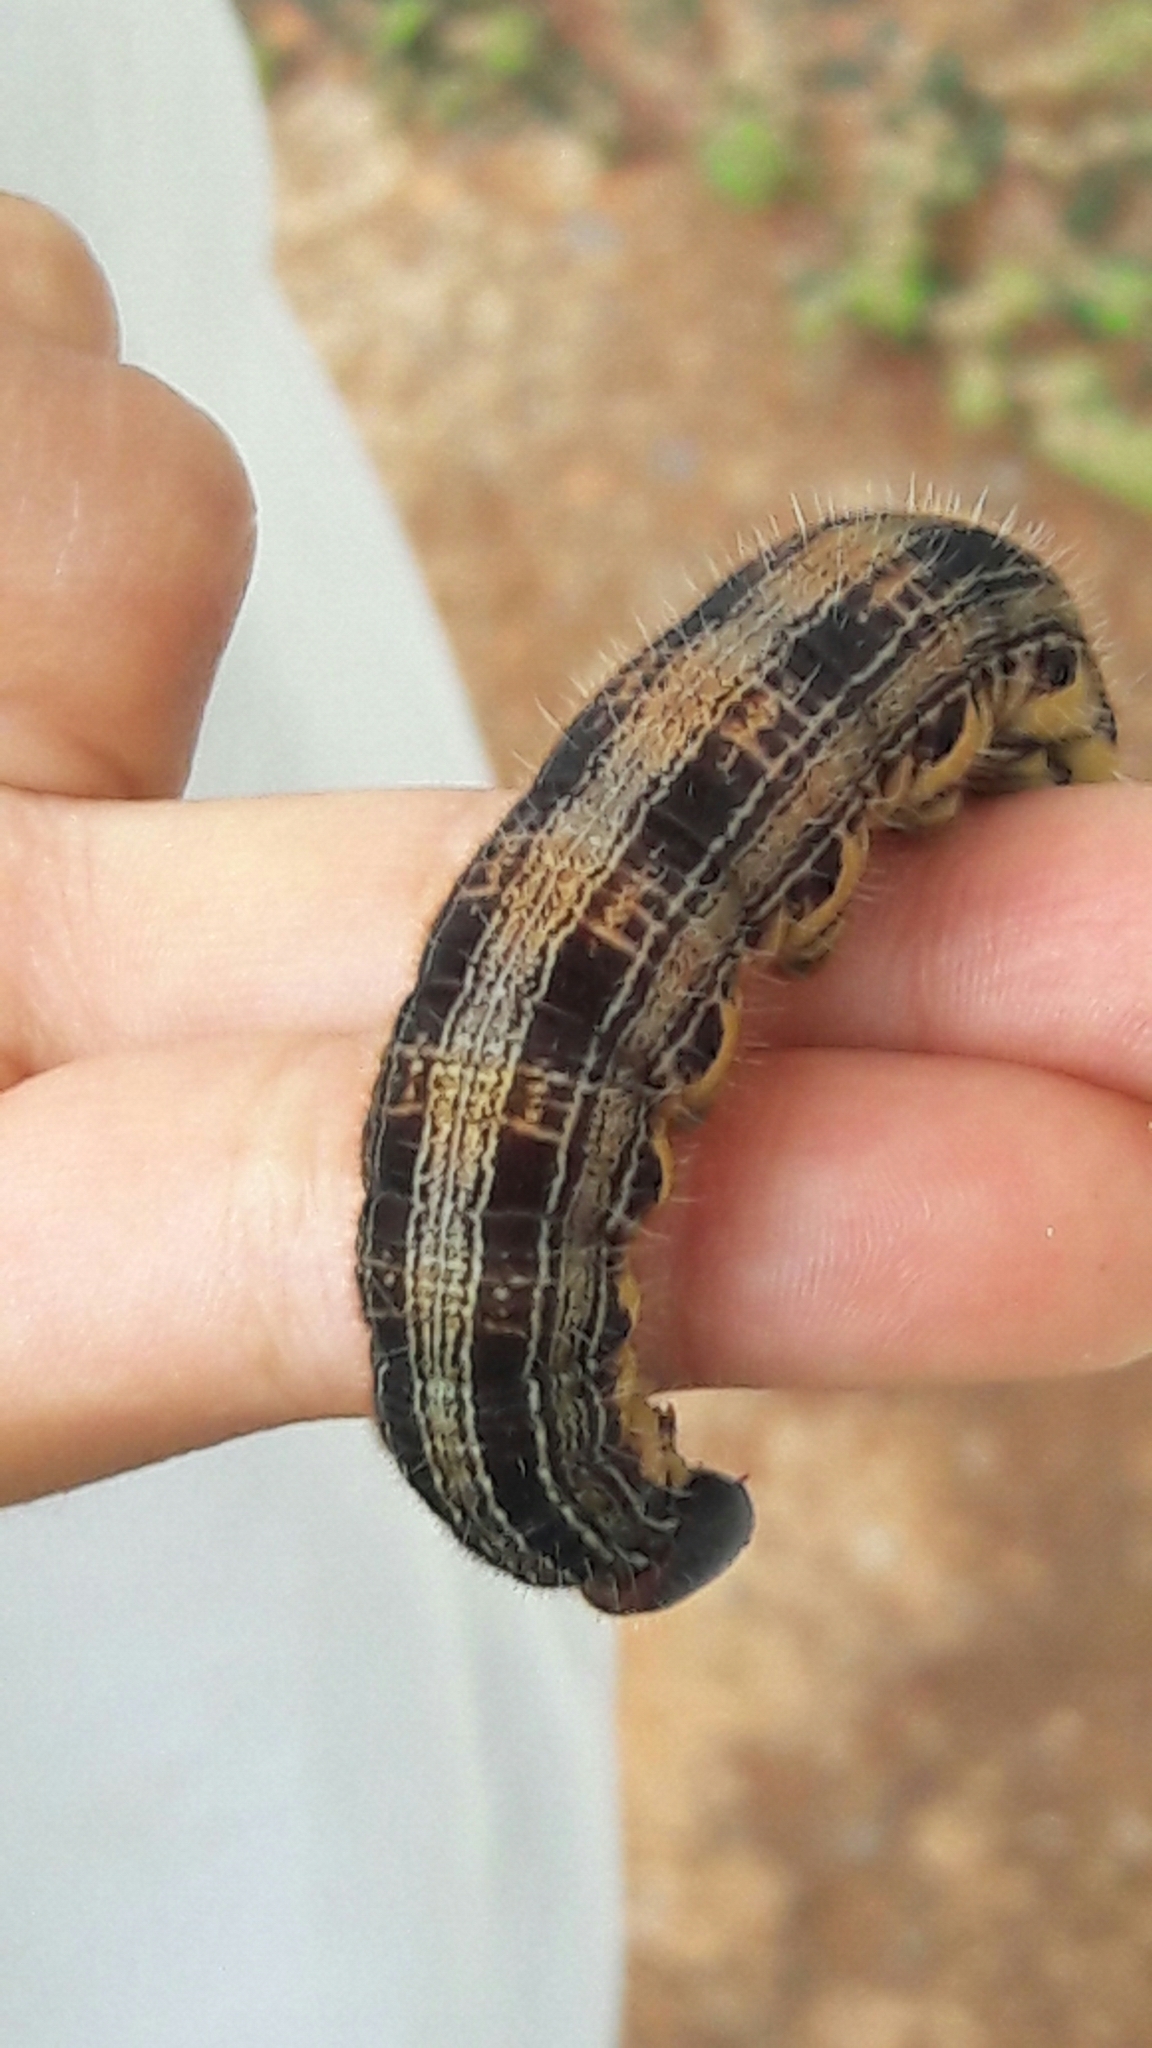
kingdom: Animalia
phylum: Arthropoda
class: Insecta
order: Lepidoptera
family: Nymphalidae
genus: Brassolis
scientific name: Brassolis sophorae
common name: Coconut caterpillar
